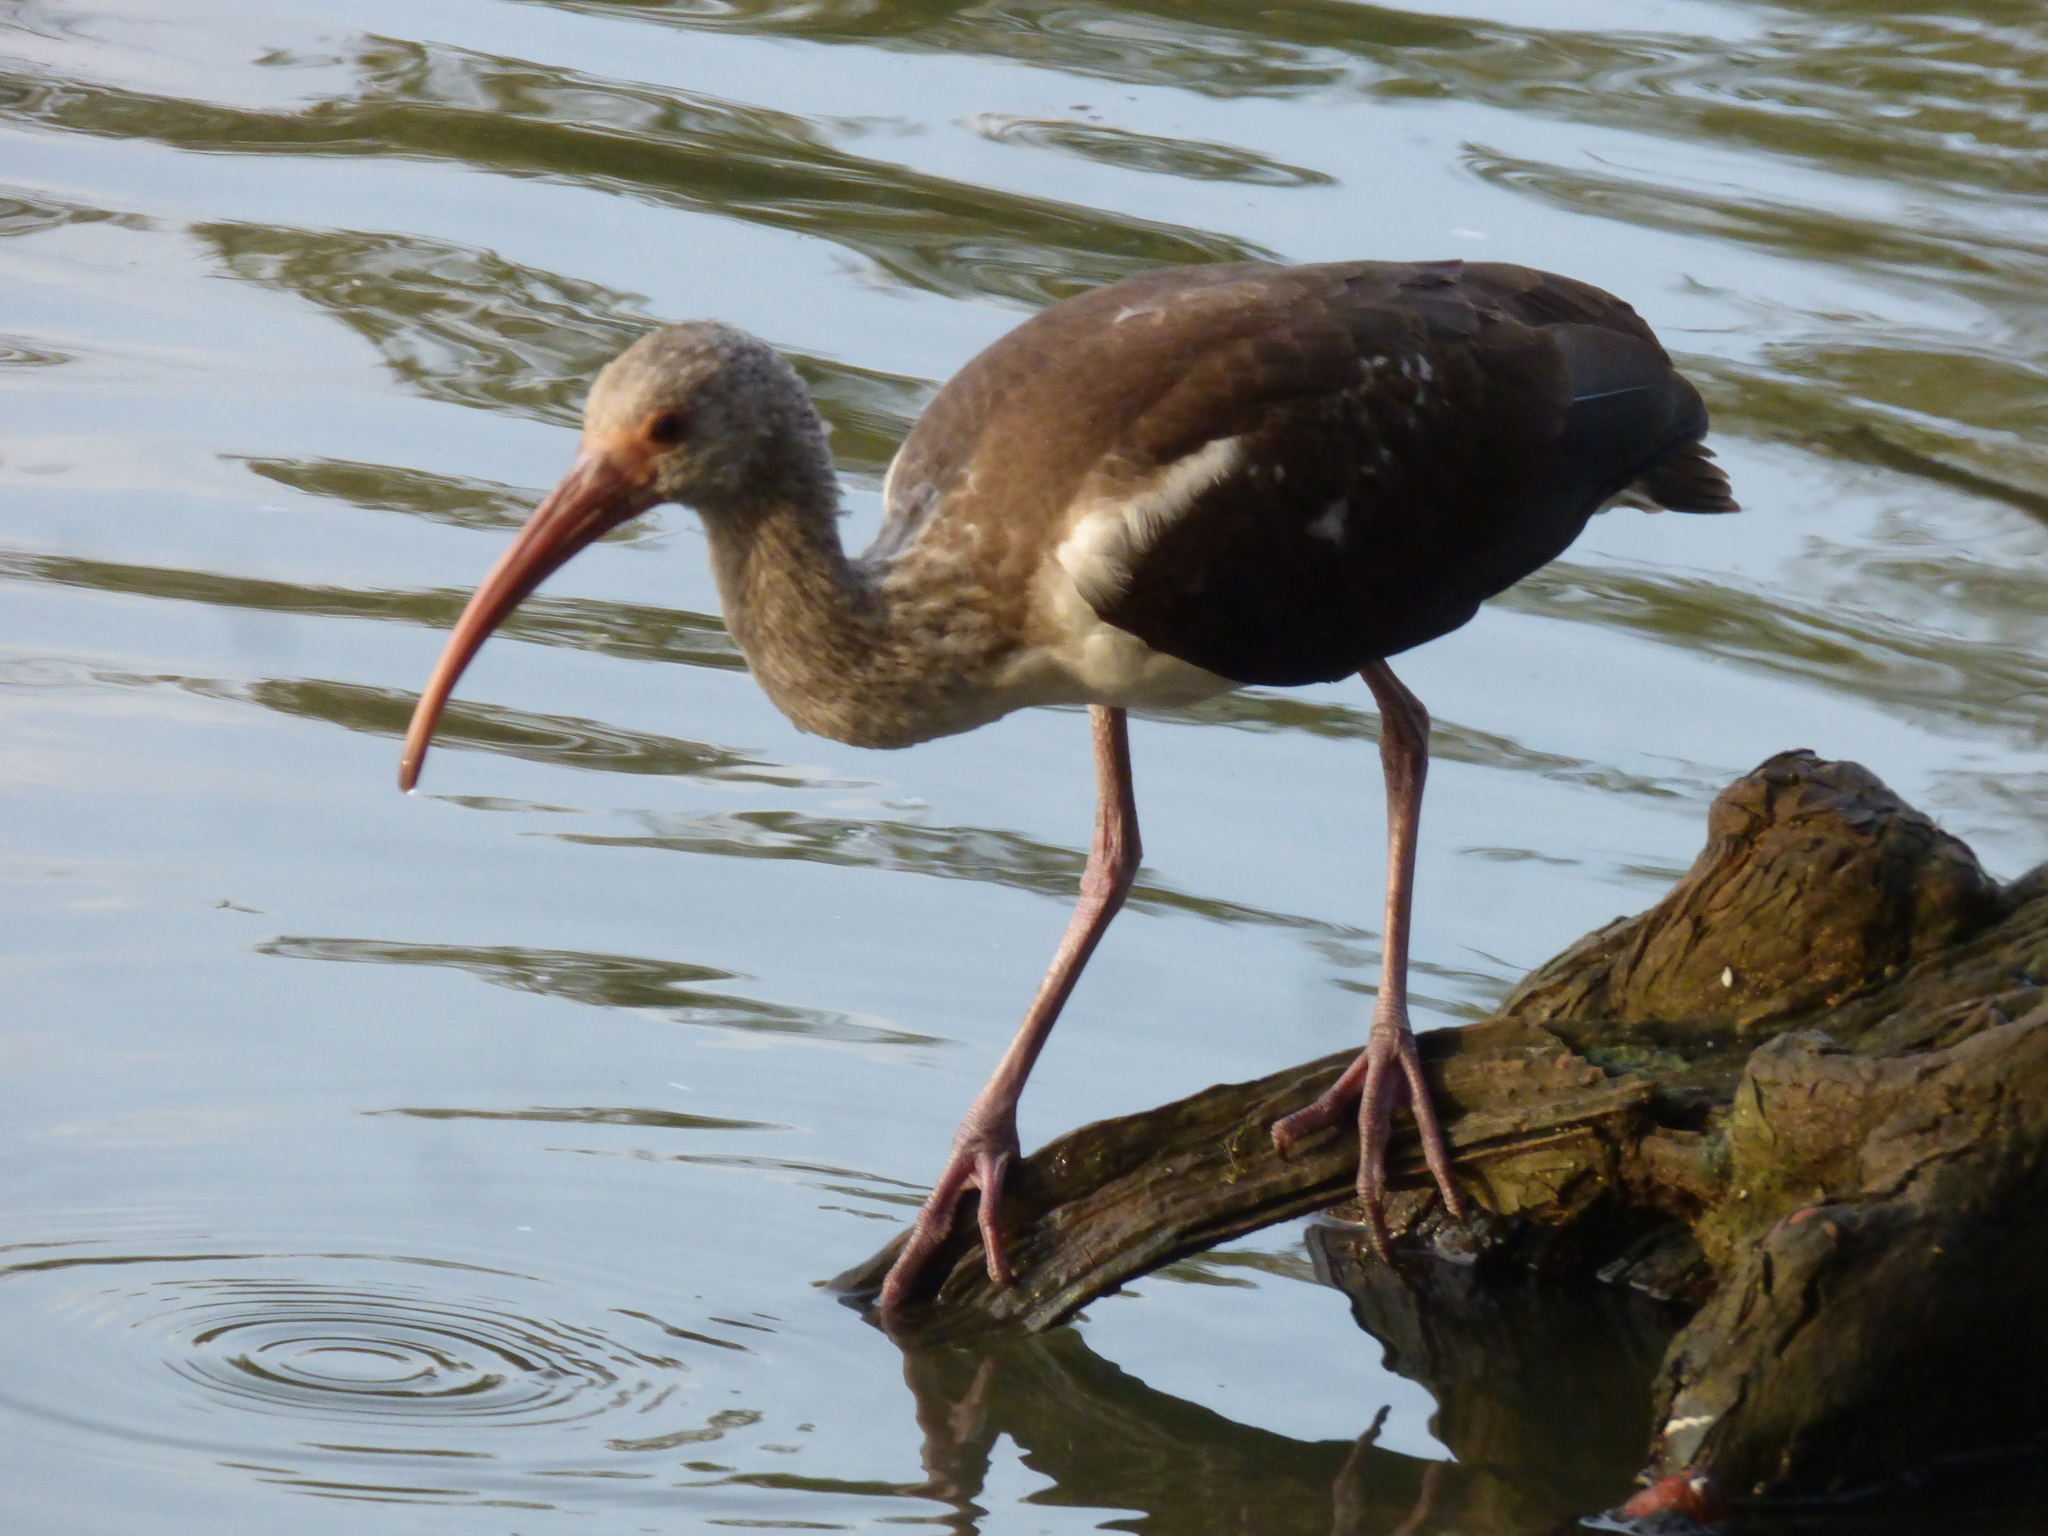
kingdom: Animalia
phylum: Chordata
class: Aves
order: Pelecaniformes
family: Threskiornithidae
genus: Eudocimus
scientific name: Eudocimus albus
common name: White ibis
